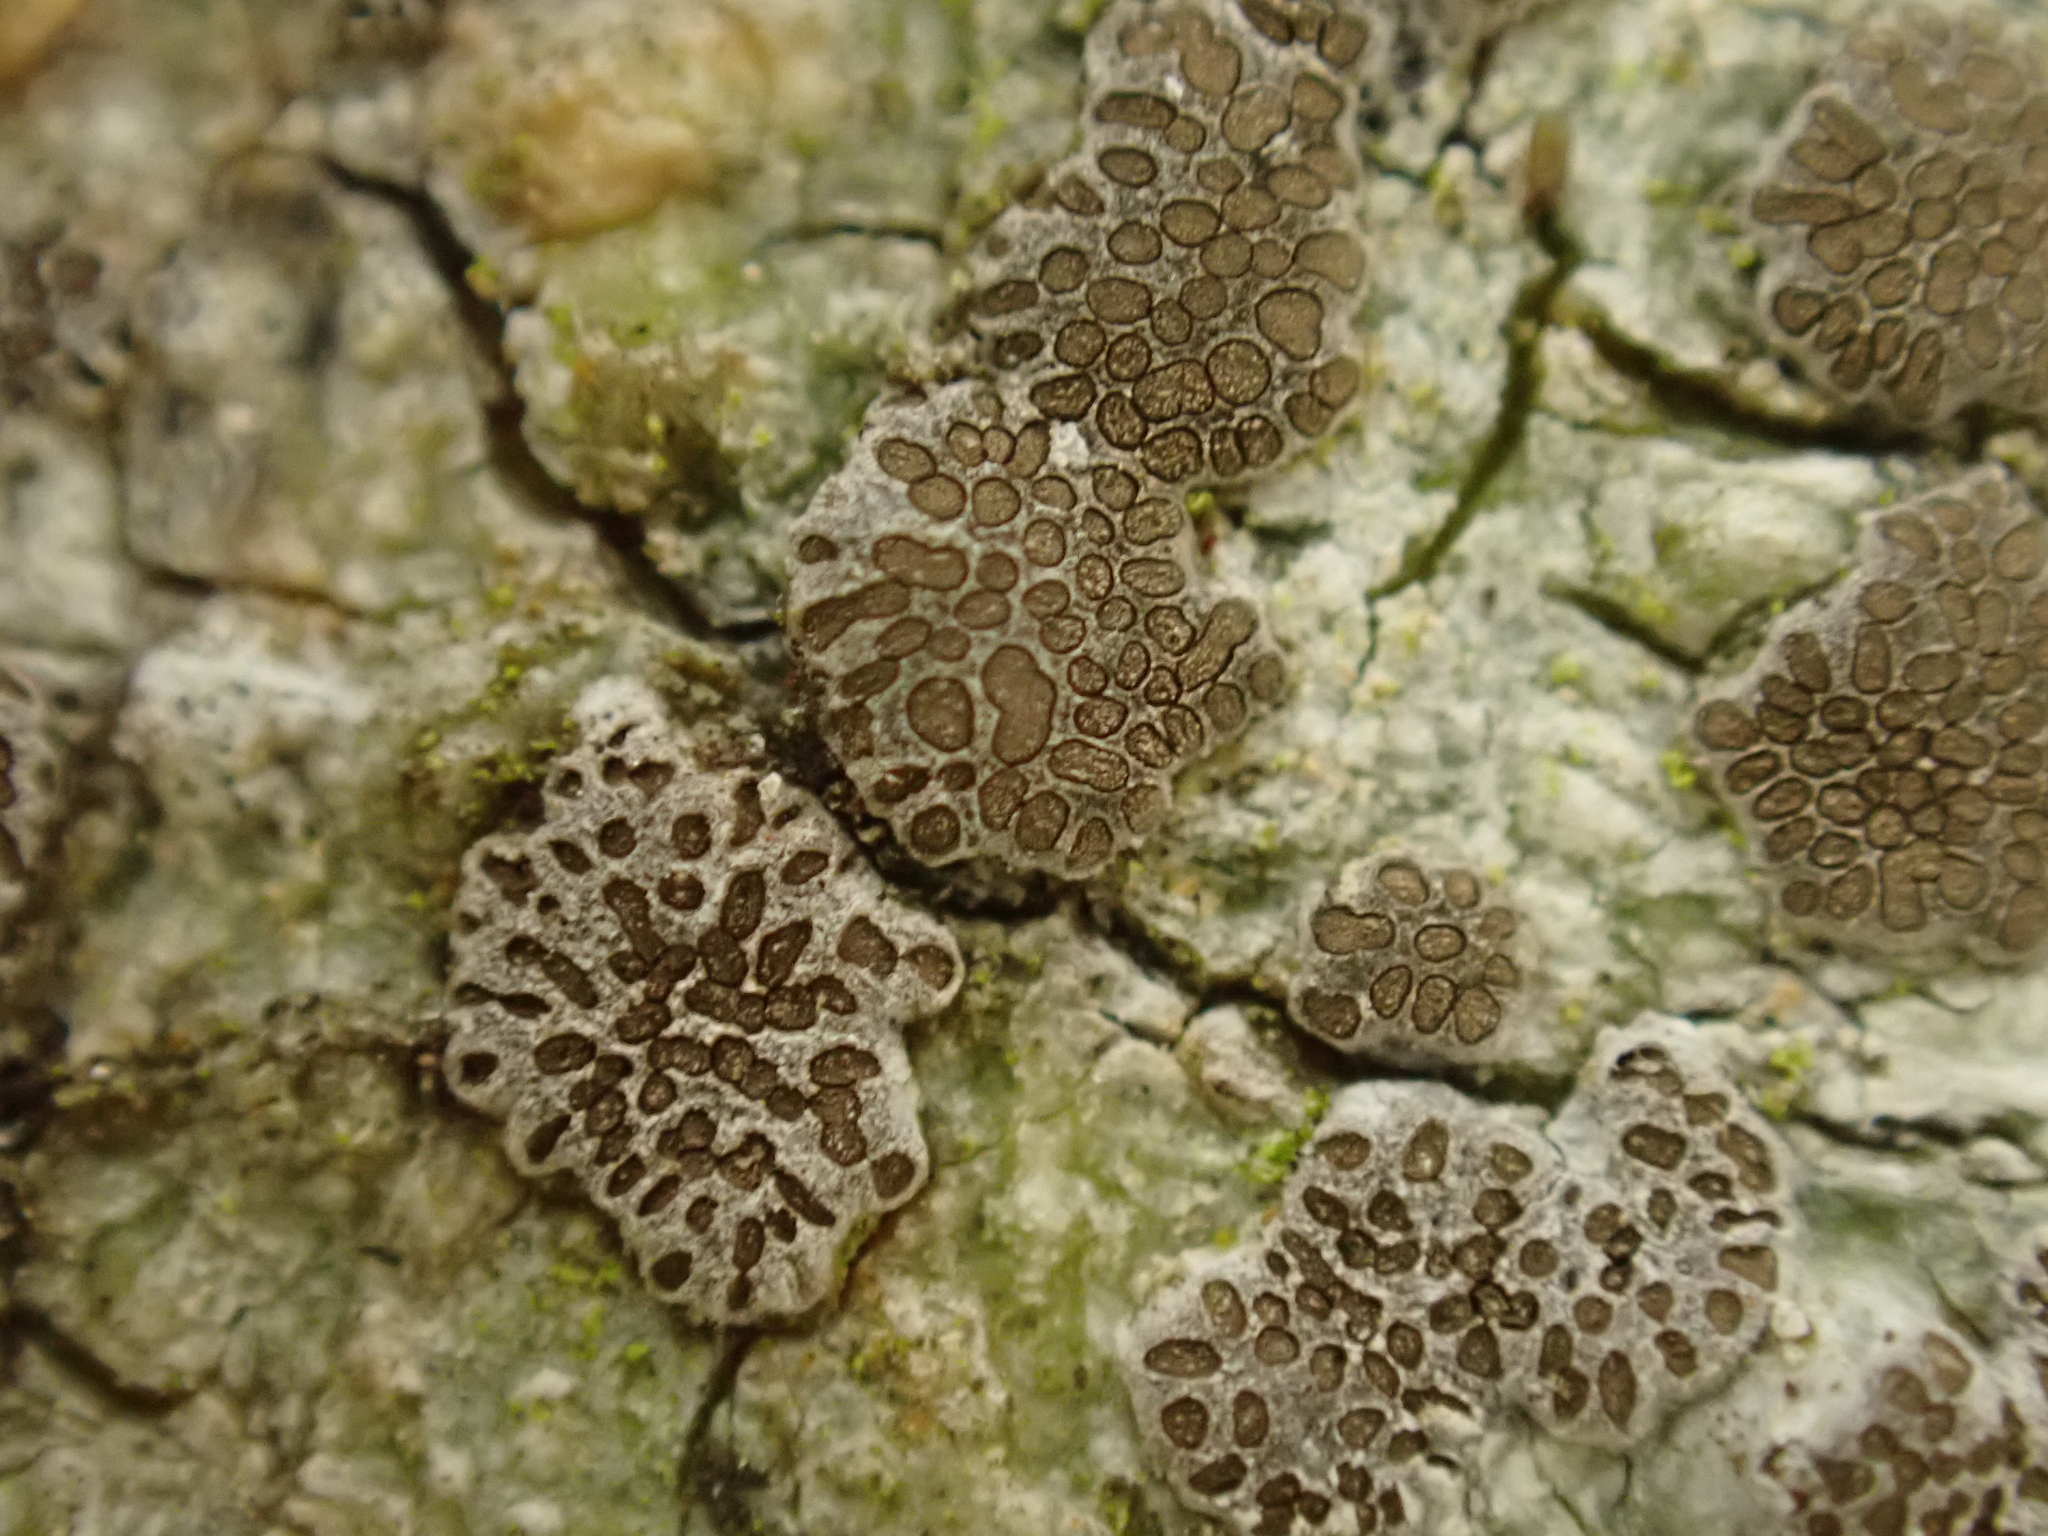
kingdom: Fungi
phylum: Ascomycota
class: Lecanoromycetes
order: Ostropales
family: Graphidaceae
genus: Glyphis
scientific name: Glyphis cicatricosa
